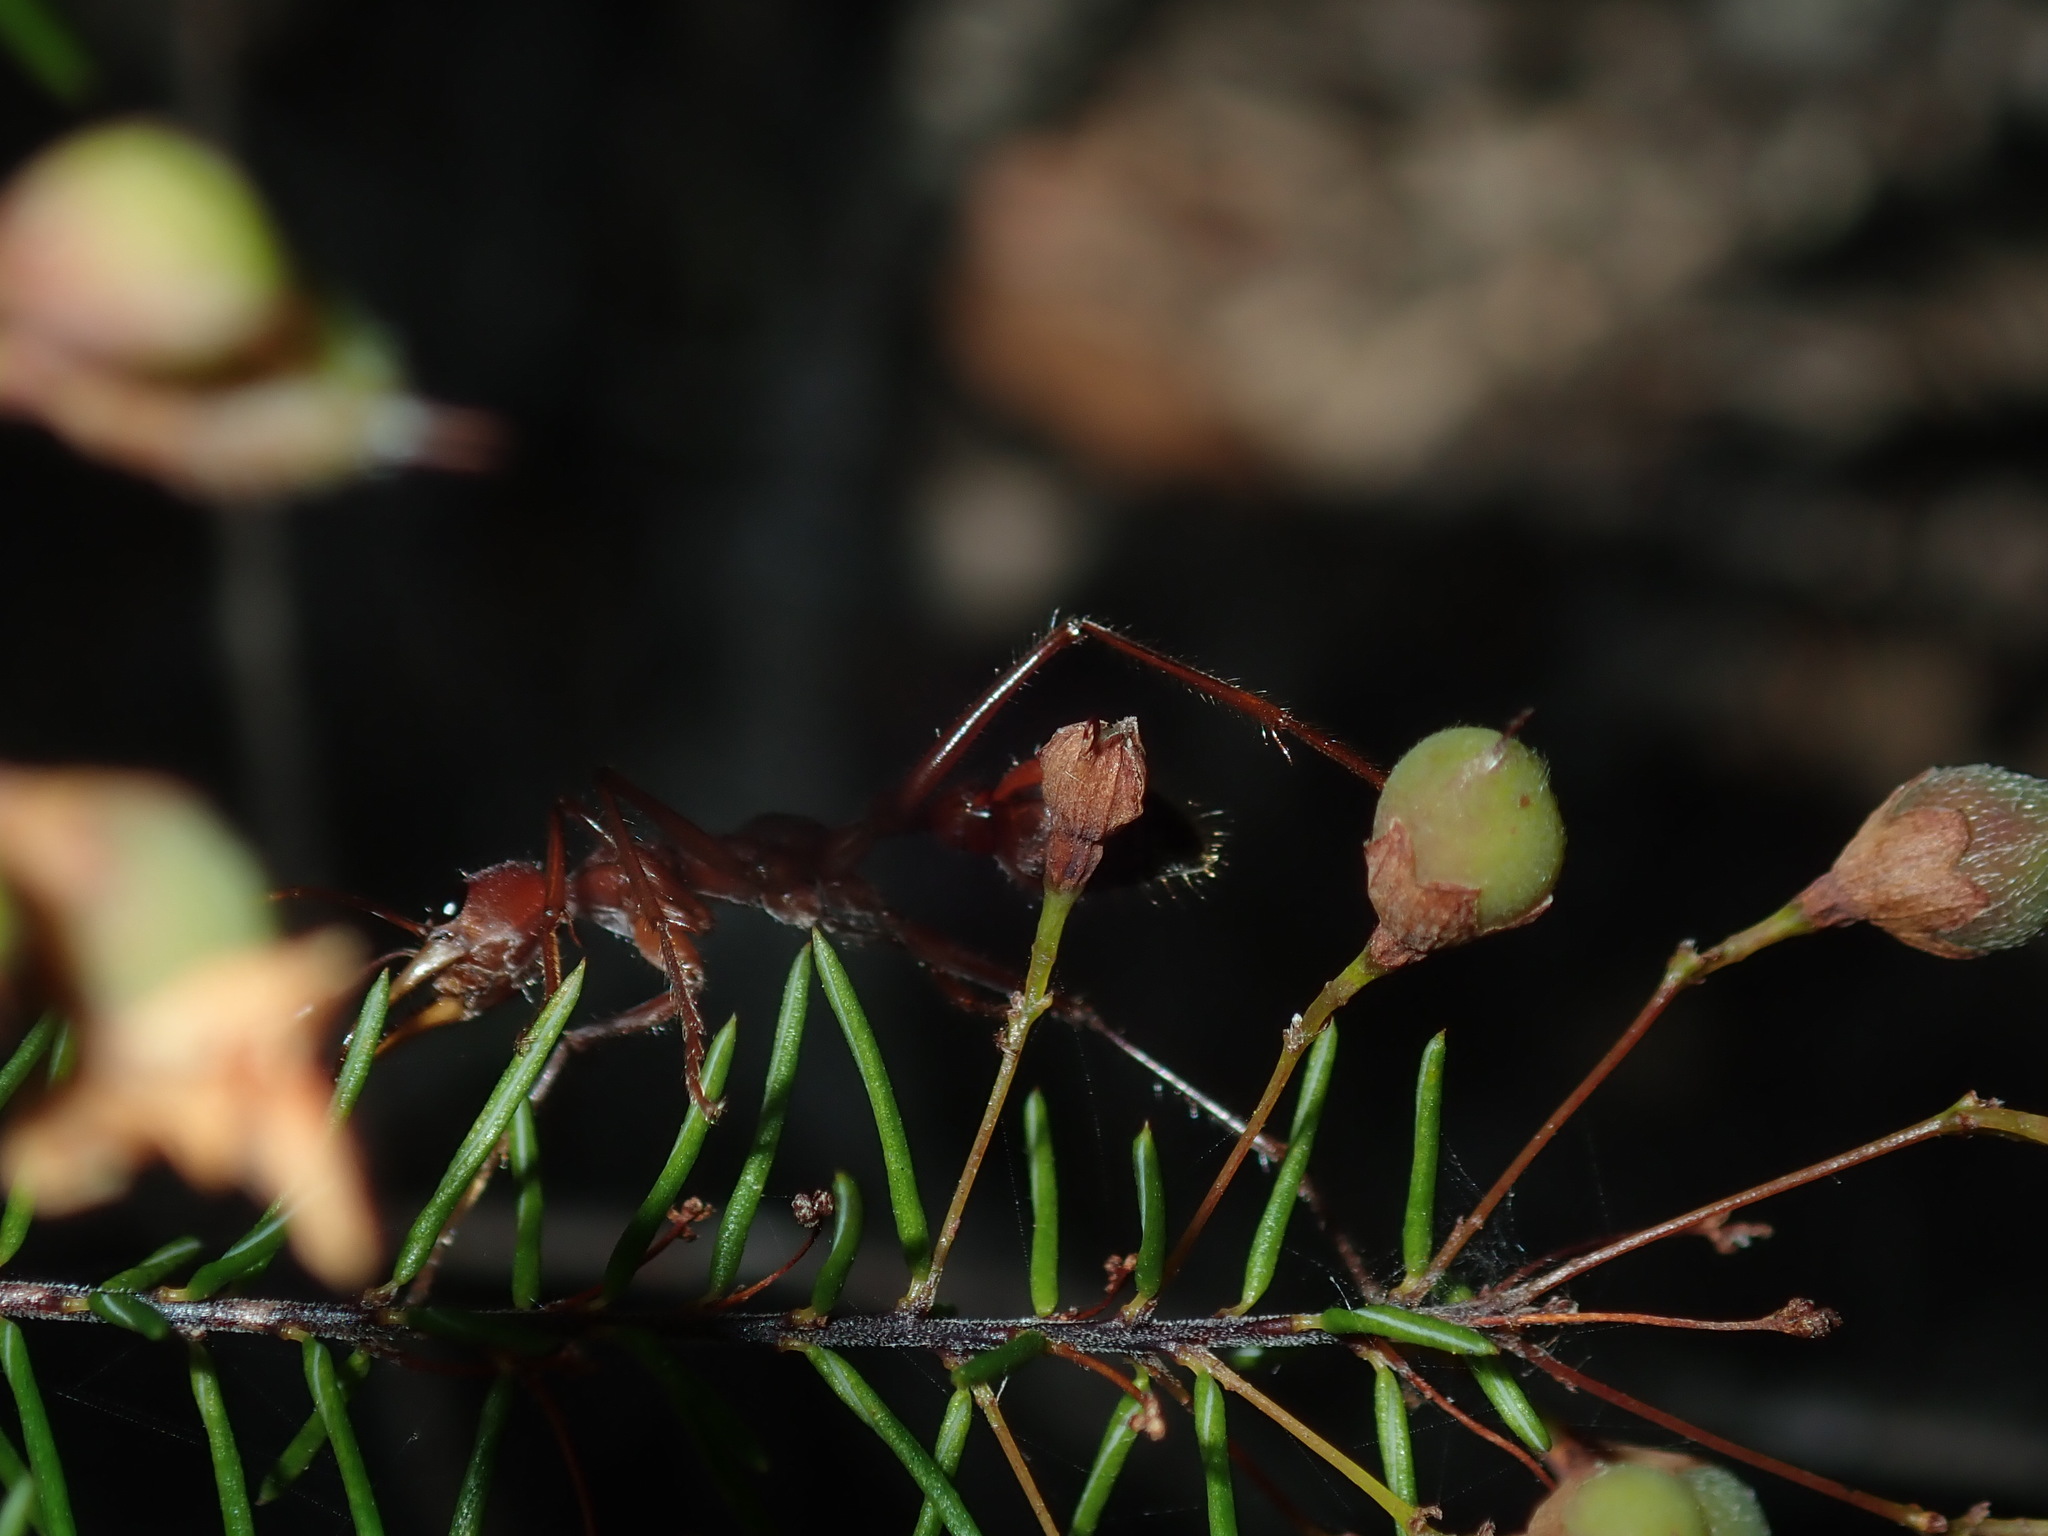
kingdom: Animalia
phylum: Arthropoda
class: Insecta
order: Hymenoptera
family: Formicidae
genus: Myrmecia
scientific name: Myrmecia gulosa
